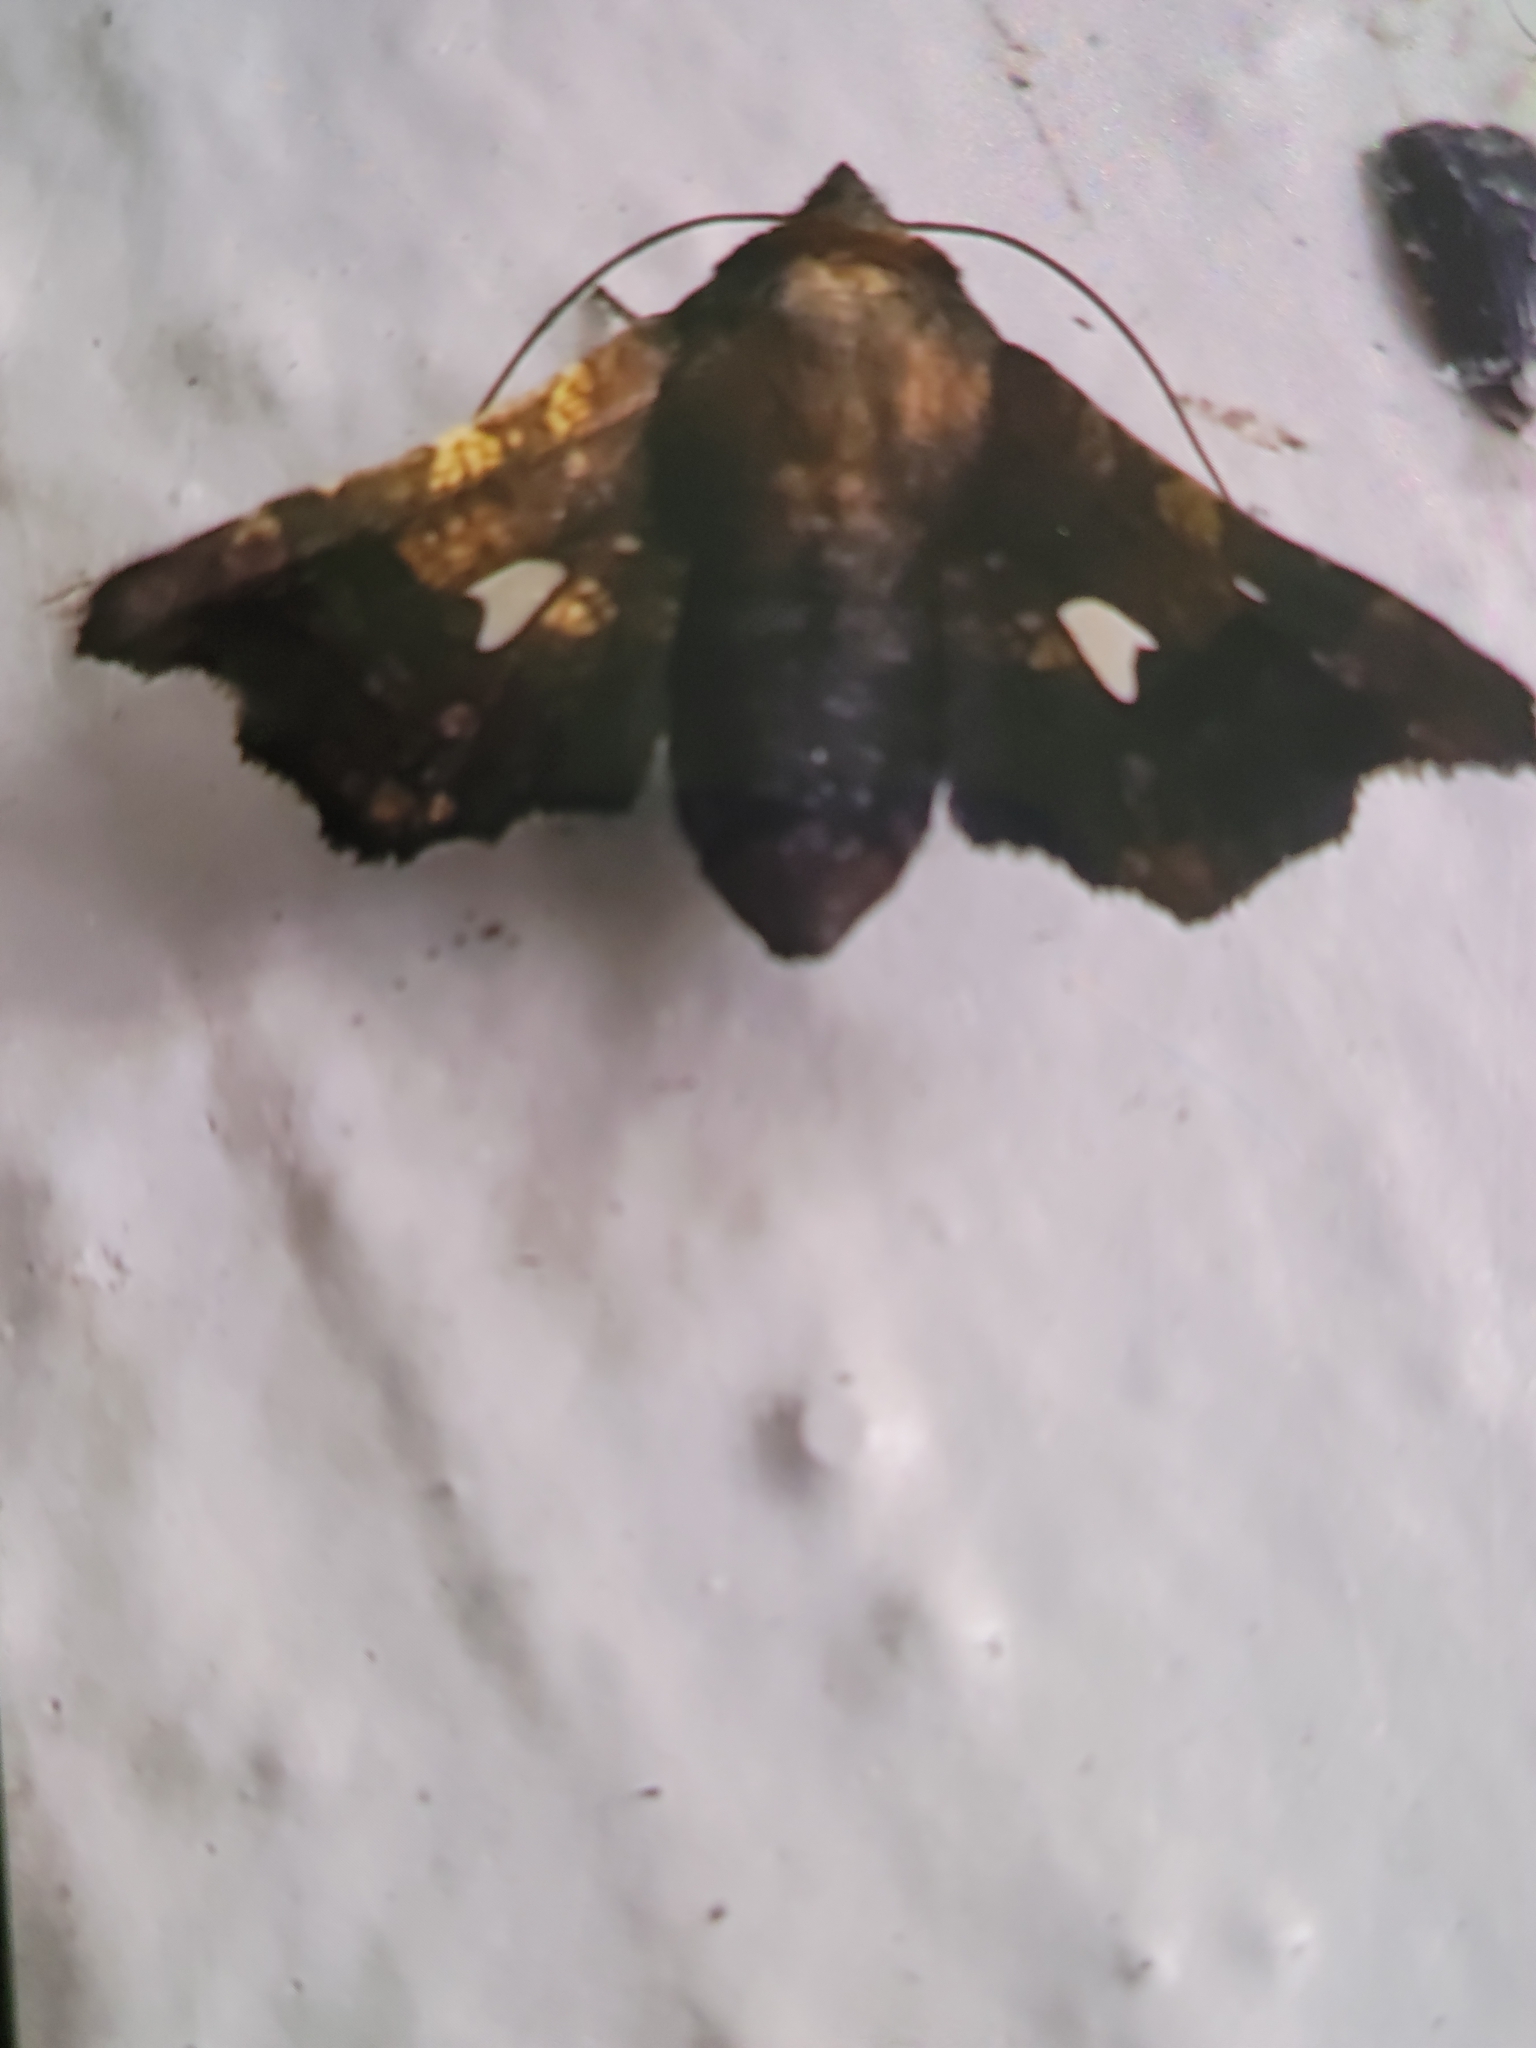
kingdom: Animalia
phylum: Arthropoda
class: Insecta
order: Lepidoptera
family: Thyrididae
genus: Dysodia
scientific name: Dysodia oculatana
